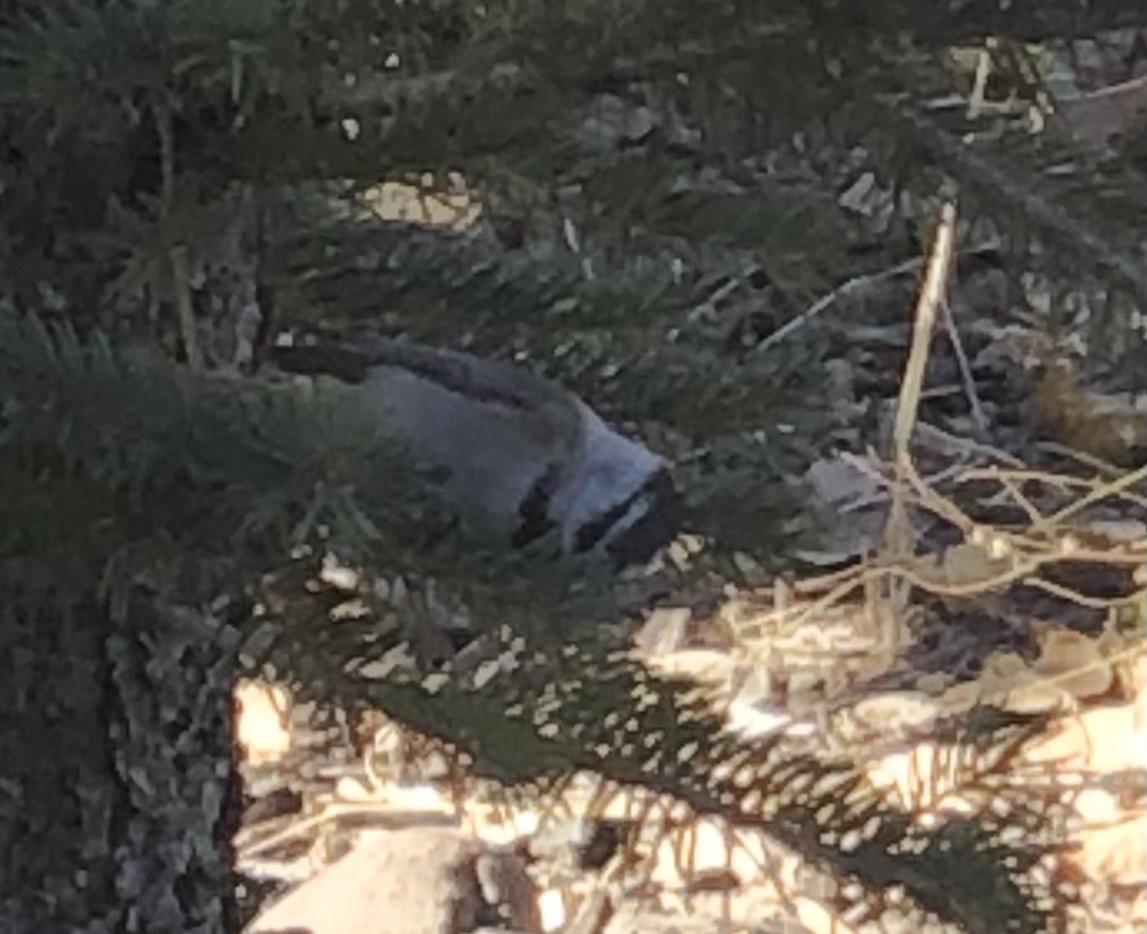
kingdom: Animalia
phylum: Chordata
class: Aves
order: Passeriformes
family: Paridae
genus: Poecile
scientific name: Poecile gambeli
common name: Mountain chickadee
